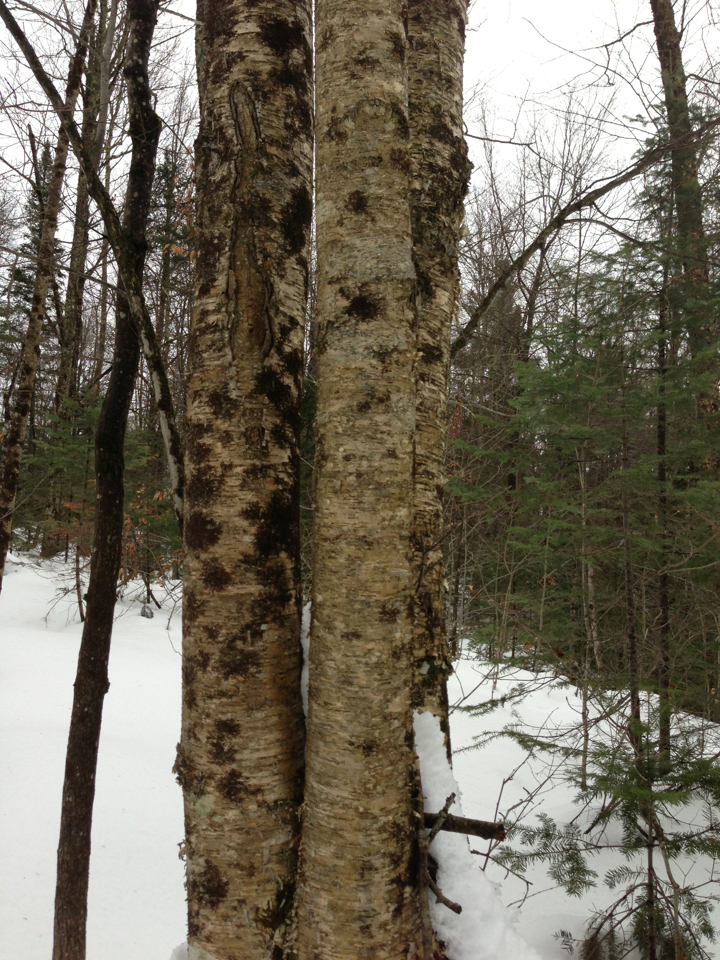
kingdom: Plantae
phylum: Tracheophyta
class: Magnoliopsida
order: Fagales
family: Betulaceae
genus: Betula
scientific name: Betula alleghaniensis
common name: Yellow birch
